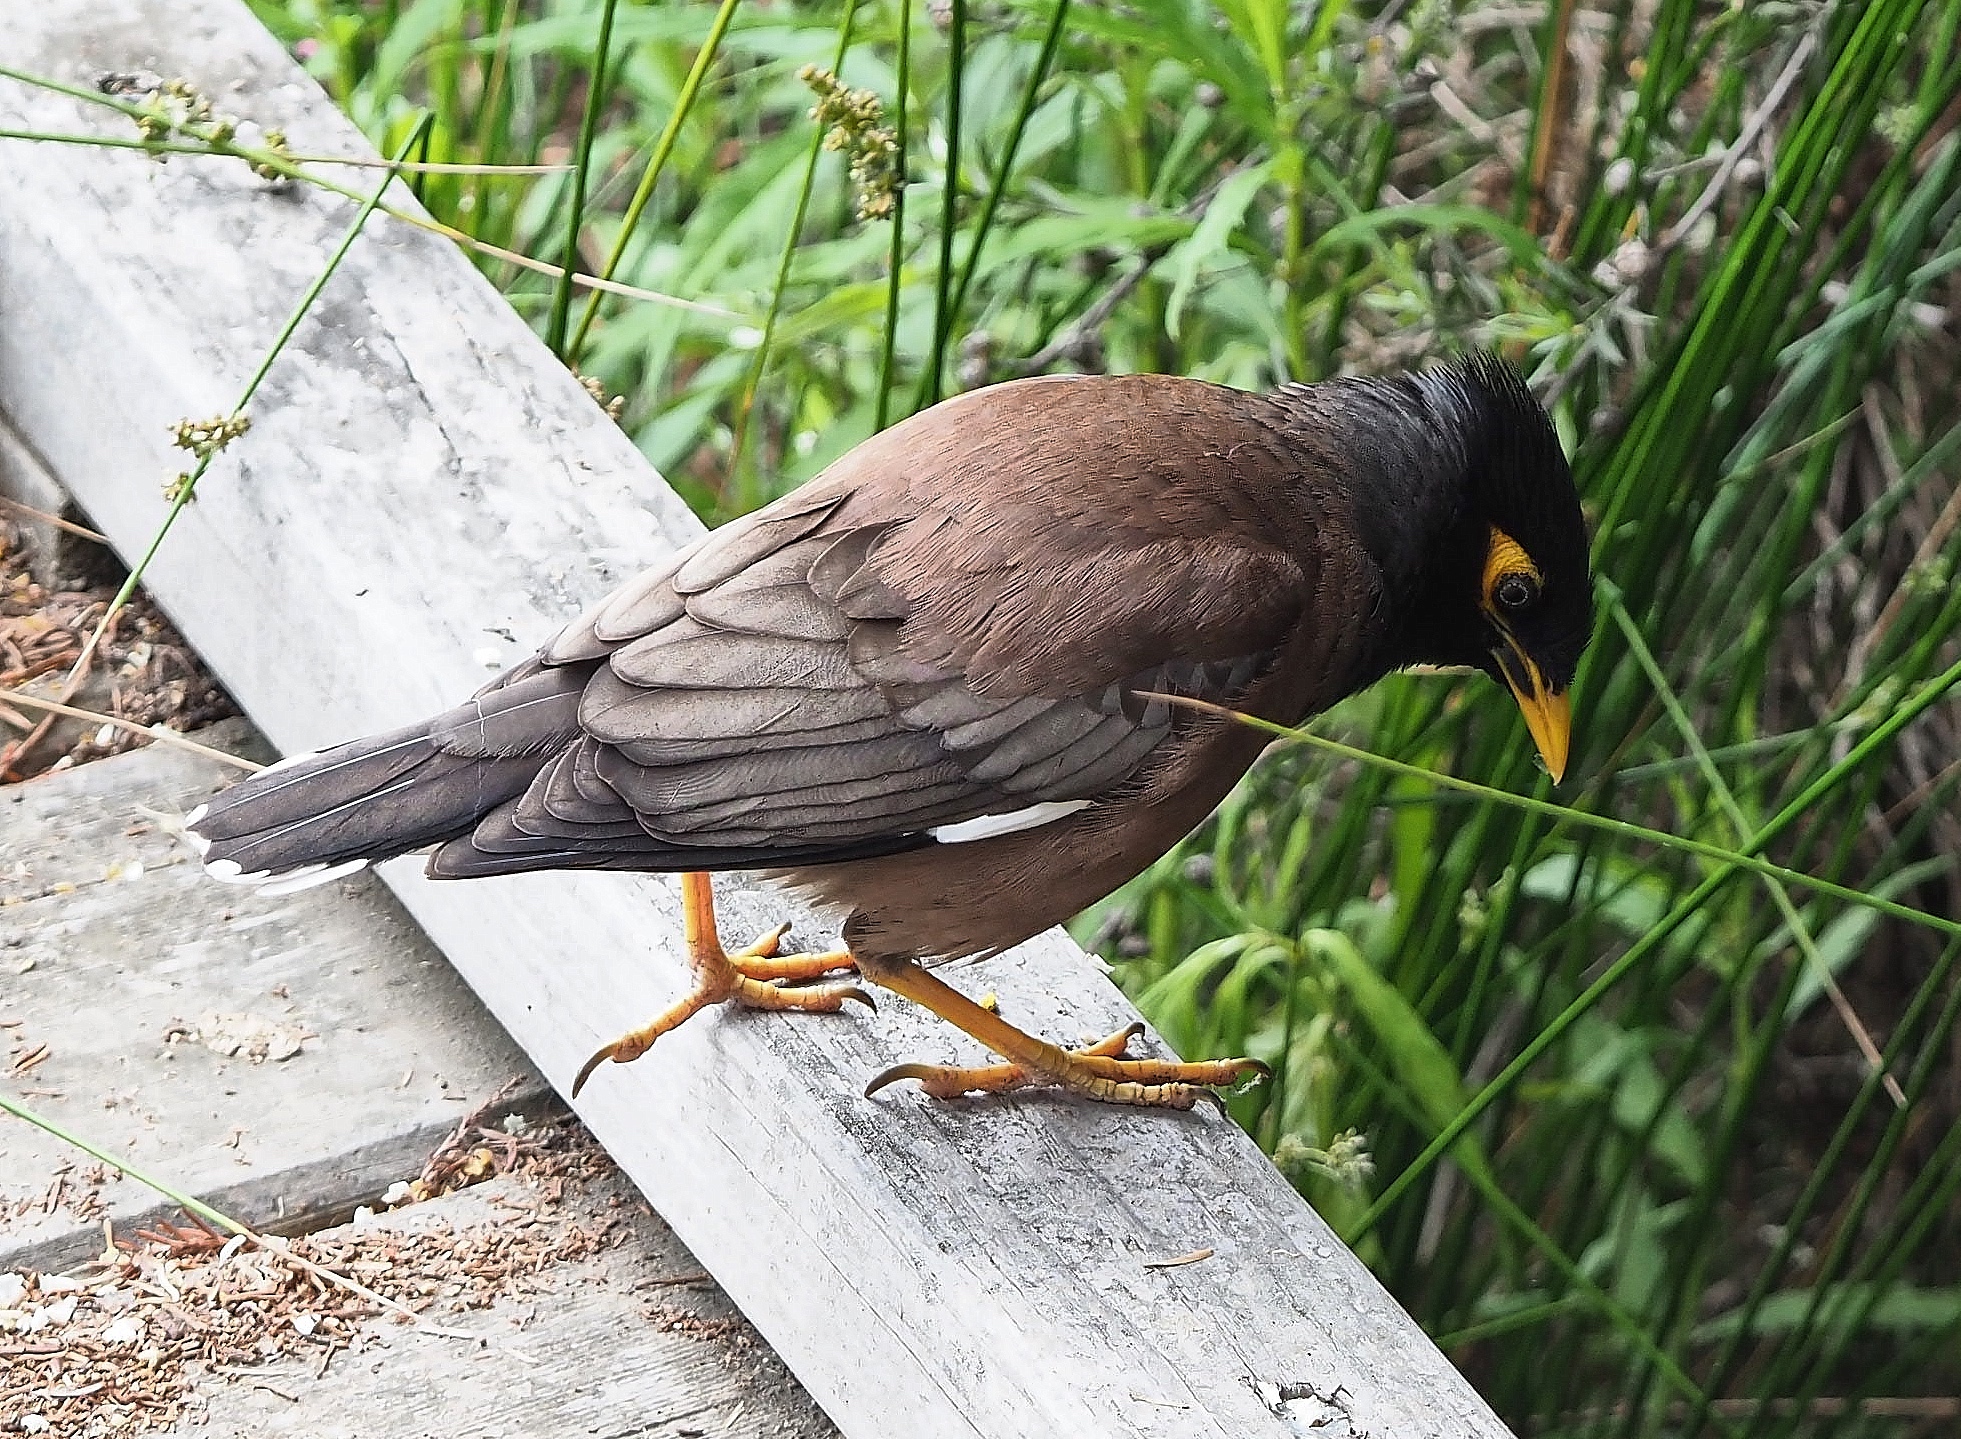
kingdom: Animalia
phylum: Chordata
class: Aves
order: Passeriformes
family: Sturnidae
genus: Acridotheres
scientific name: Acridotheres tristis
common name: Common myna
